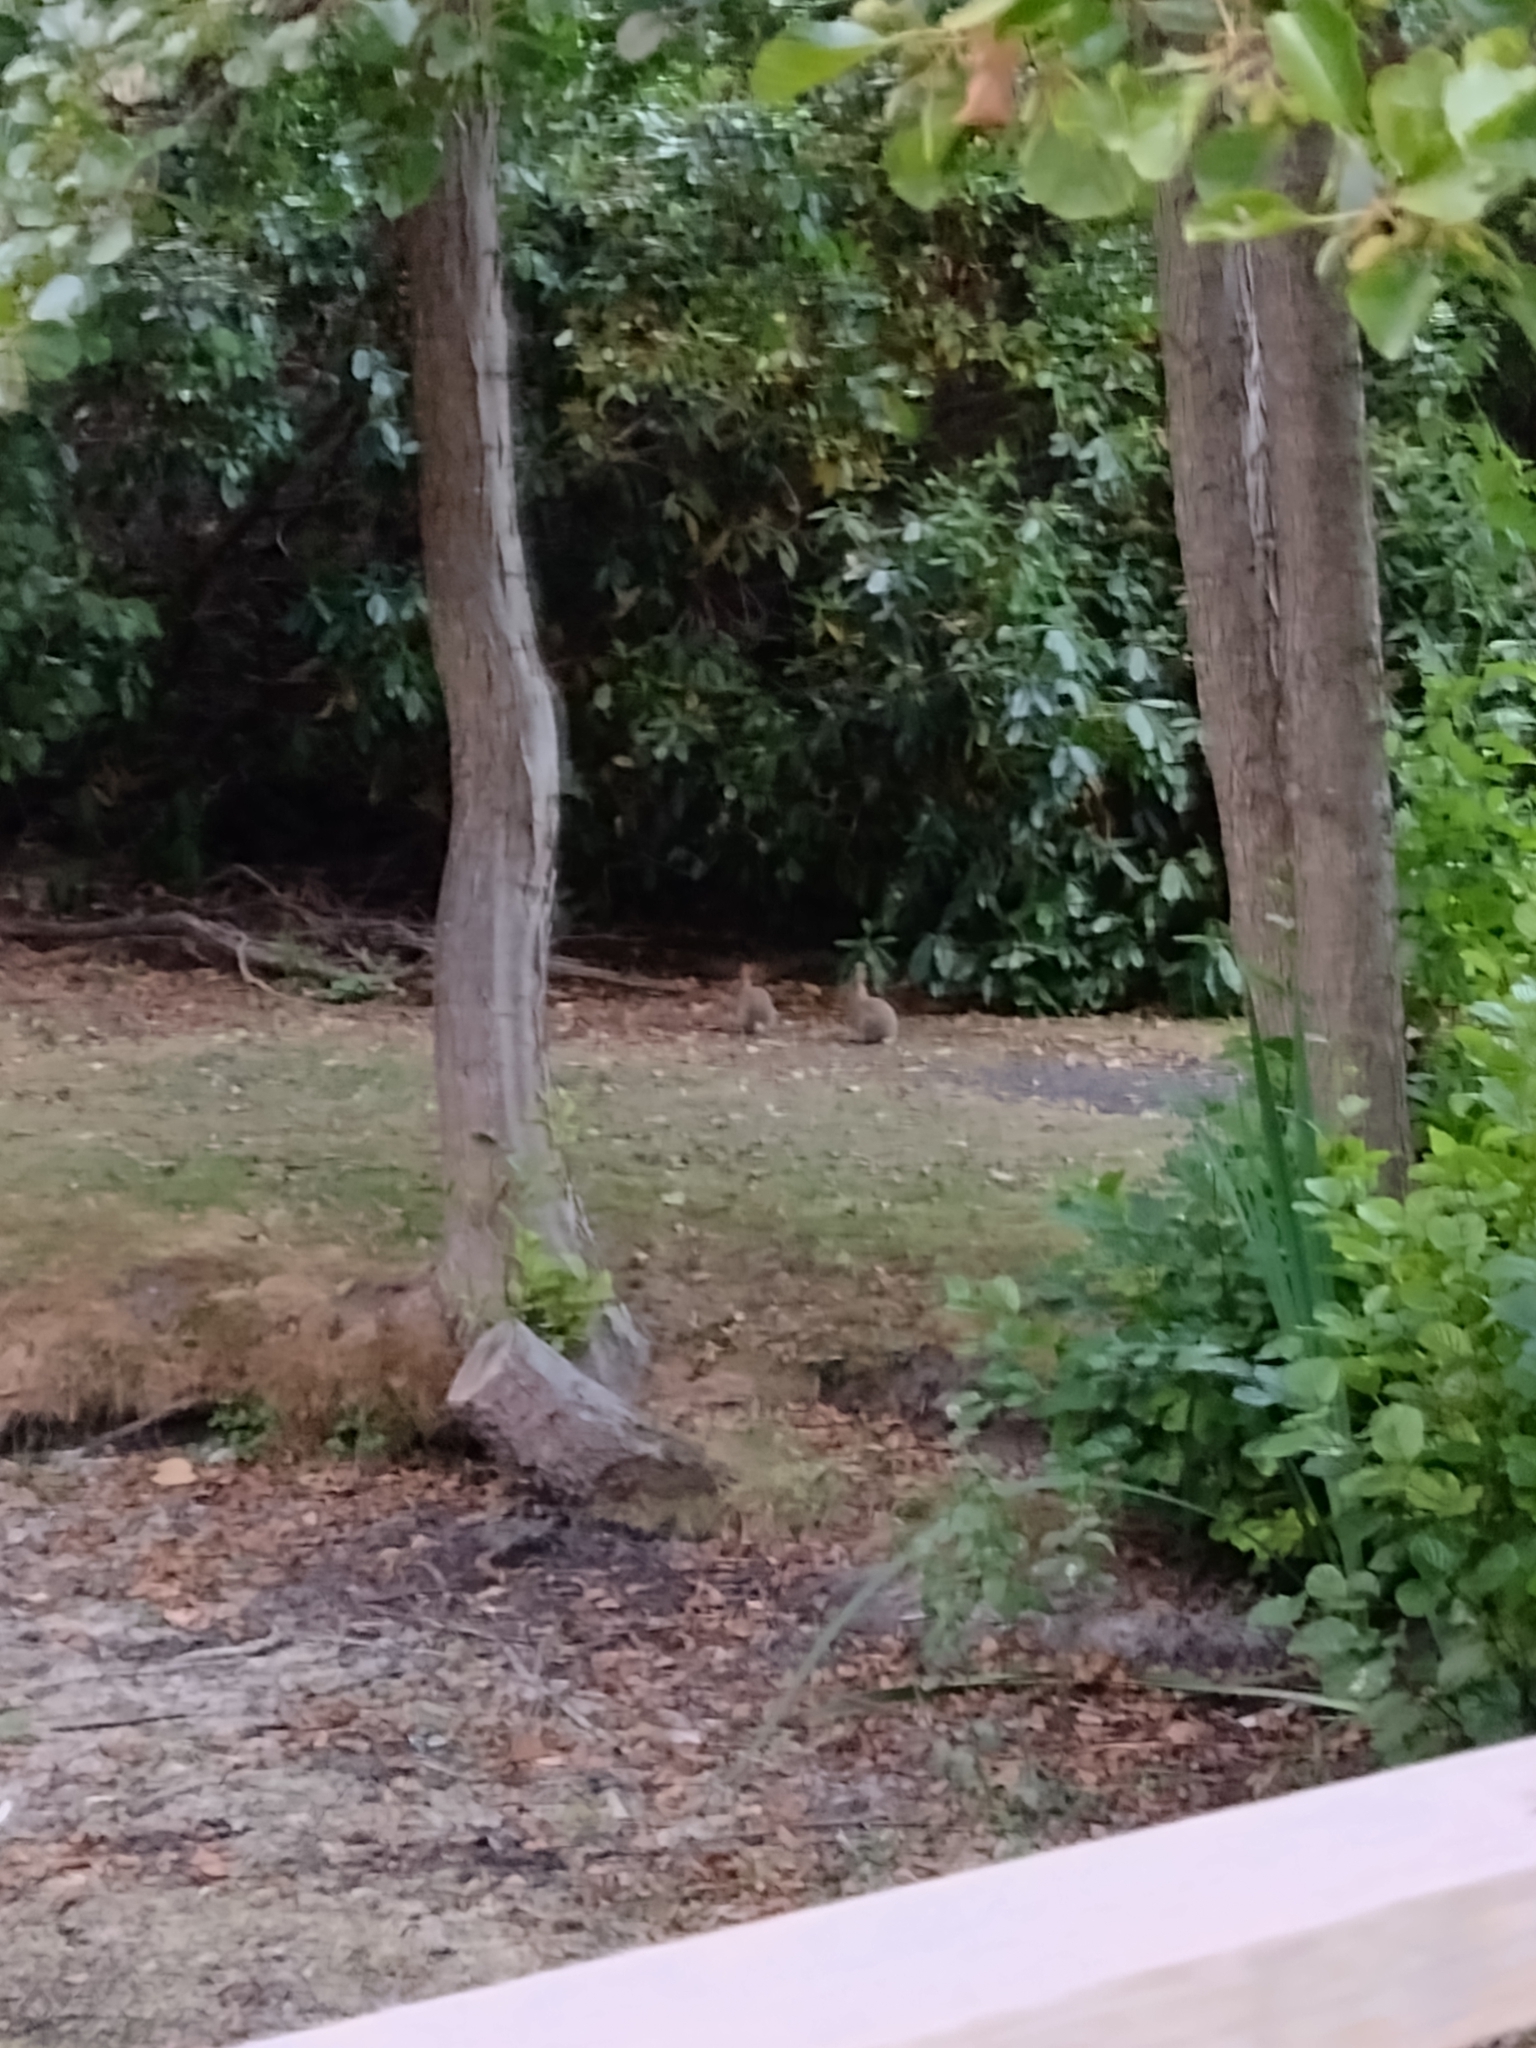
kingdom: Animalia
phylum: Chordata
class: Mammalia
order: Lagomorpha
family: Leporidae
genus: Oryctolagus
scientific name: Oryctolagus cuniculus
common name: European rabbit
